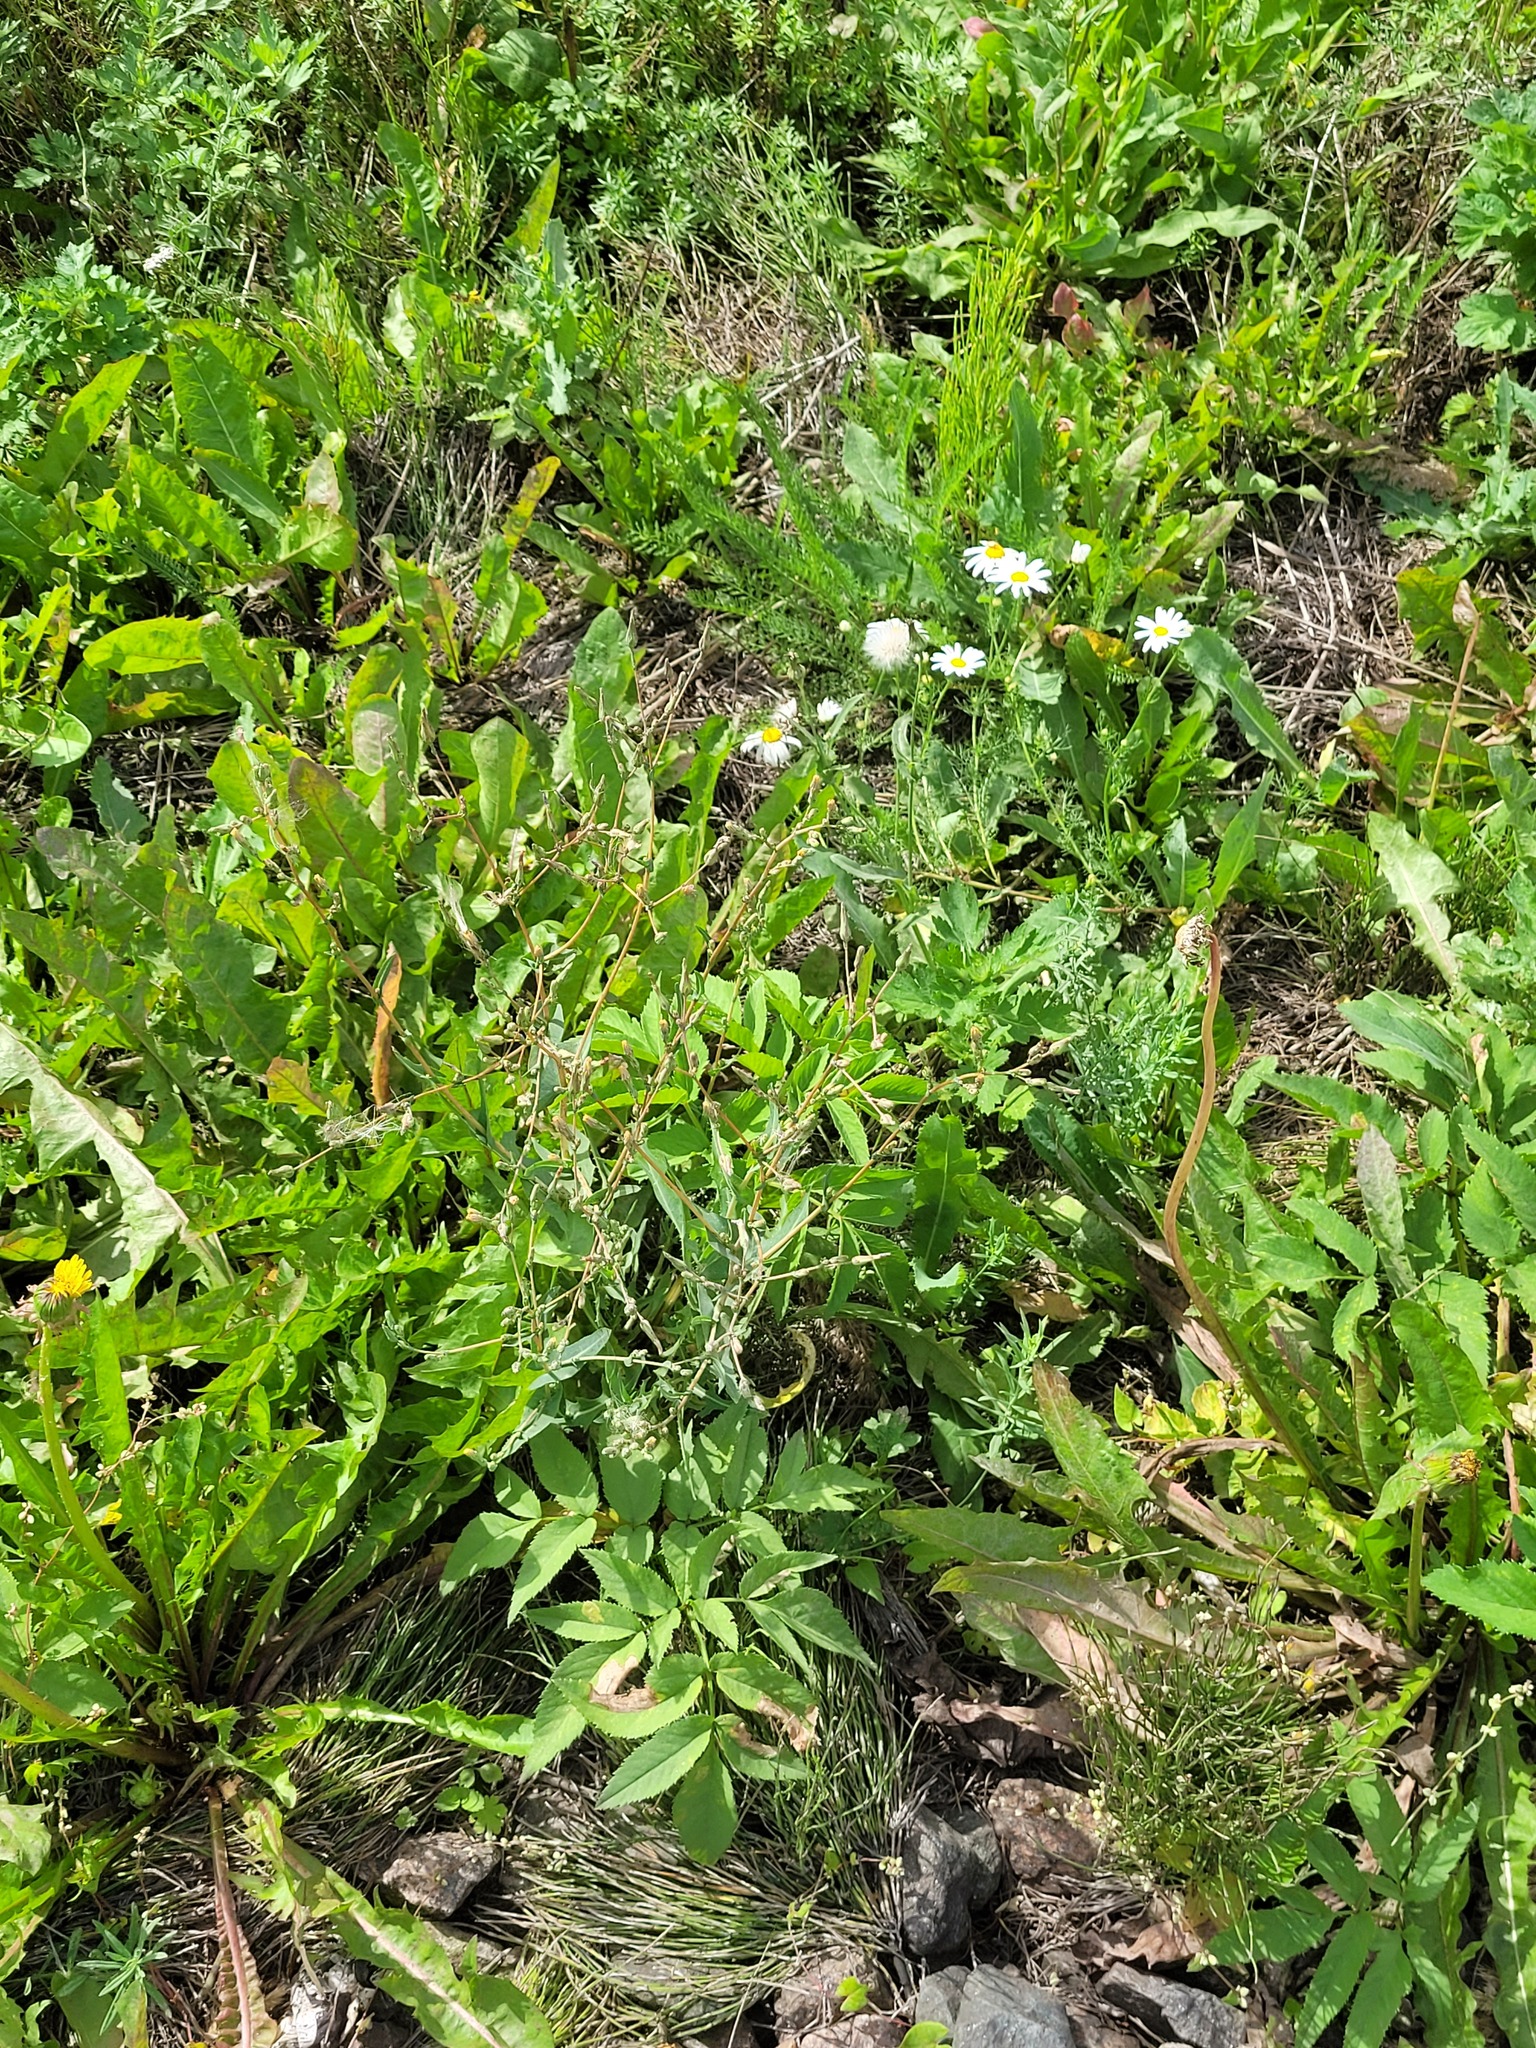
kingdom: Plantae
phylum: Tracheophyta
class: Magnoliopsida
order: Asterales
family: Asteraceae
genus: Lactuca
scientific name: Lactuca serriola
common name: Prickly lettuce
